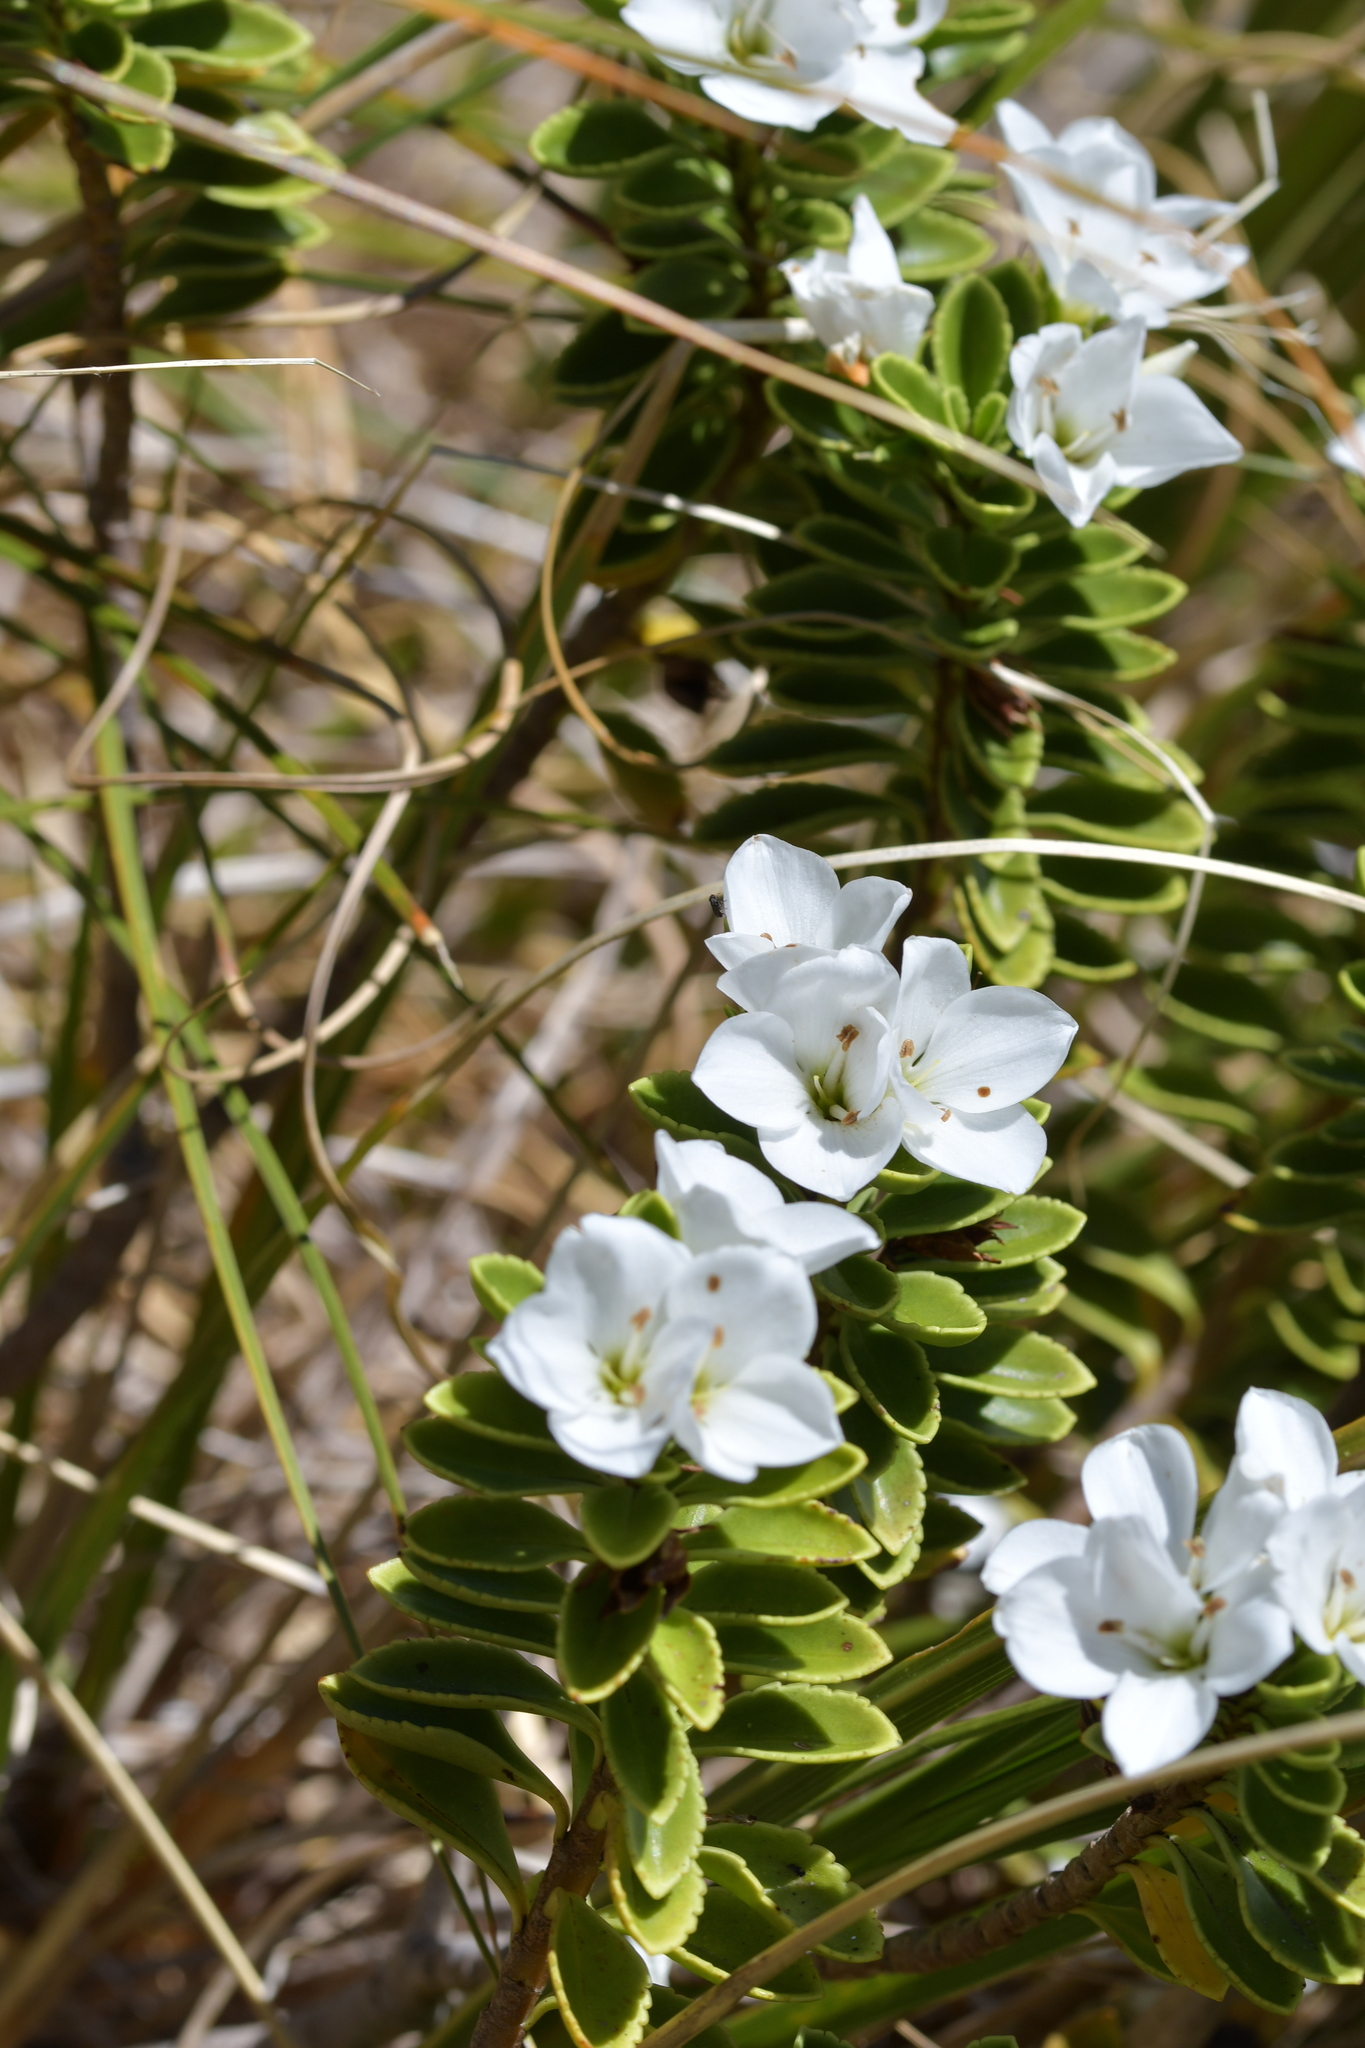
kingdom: Plantae
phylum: Tracheophyta
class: Magnoliopsida
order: Lamiales
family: Plantaginaceae
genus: Veronica
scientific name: Veronica macrantha
